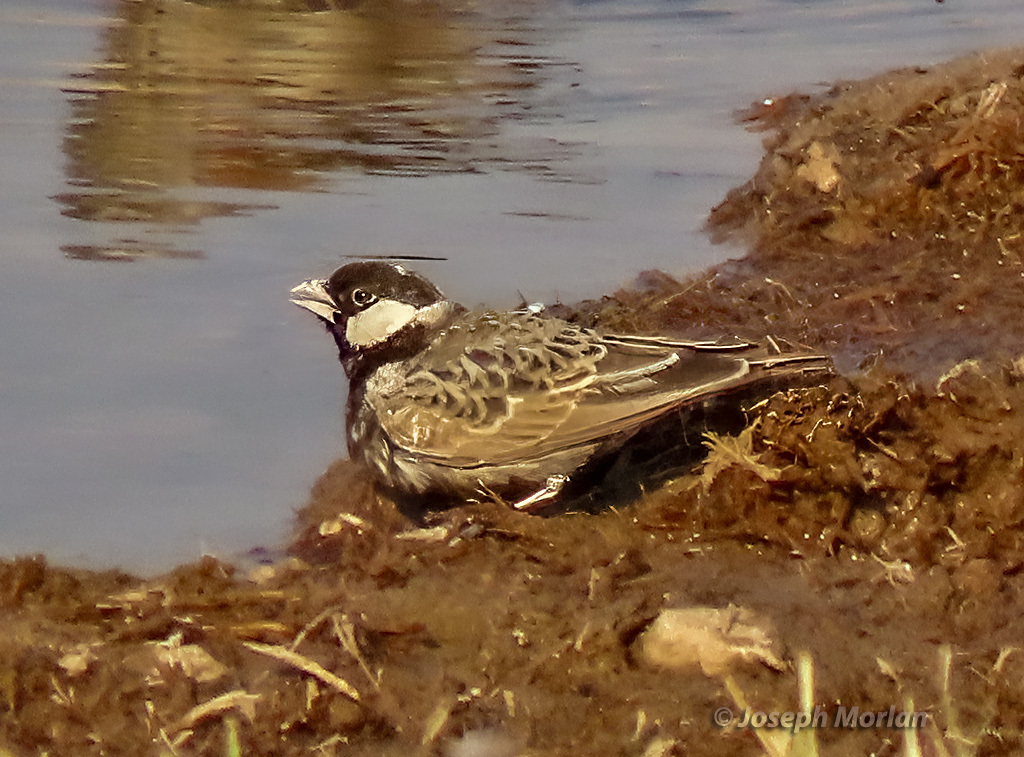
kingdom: Animalia
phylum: Chordata
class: Aves
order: Passeriformes
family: Alaudidae
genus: Eremopterix
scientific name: Eremopterix verticalis
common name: Grey-backed sparrow-lark
